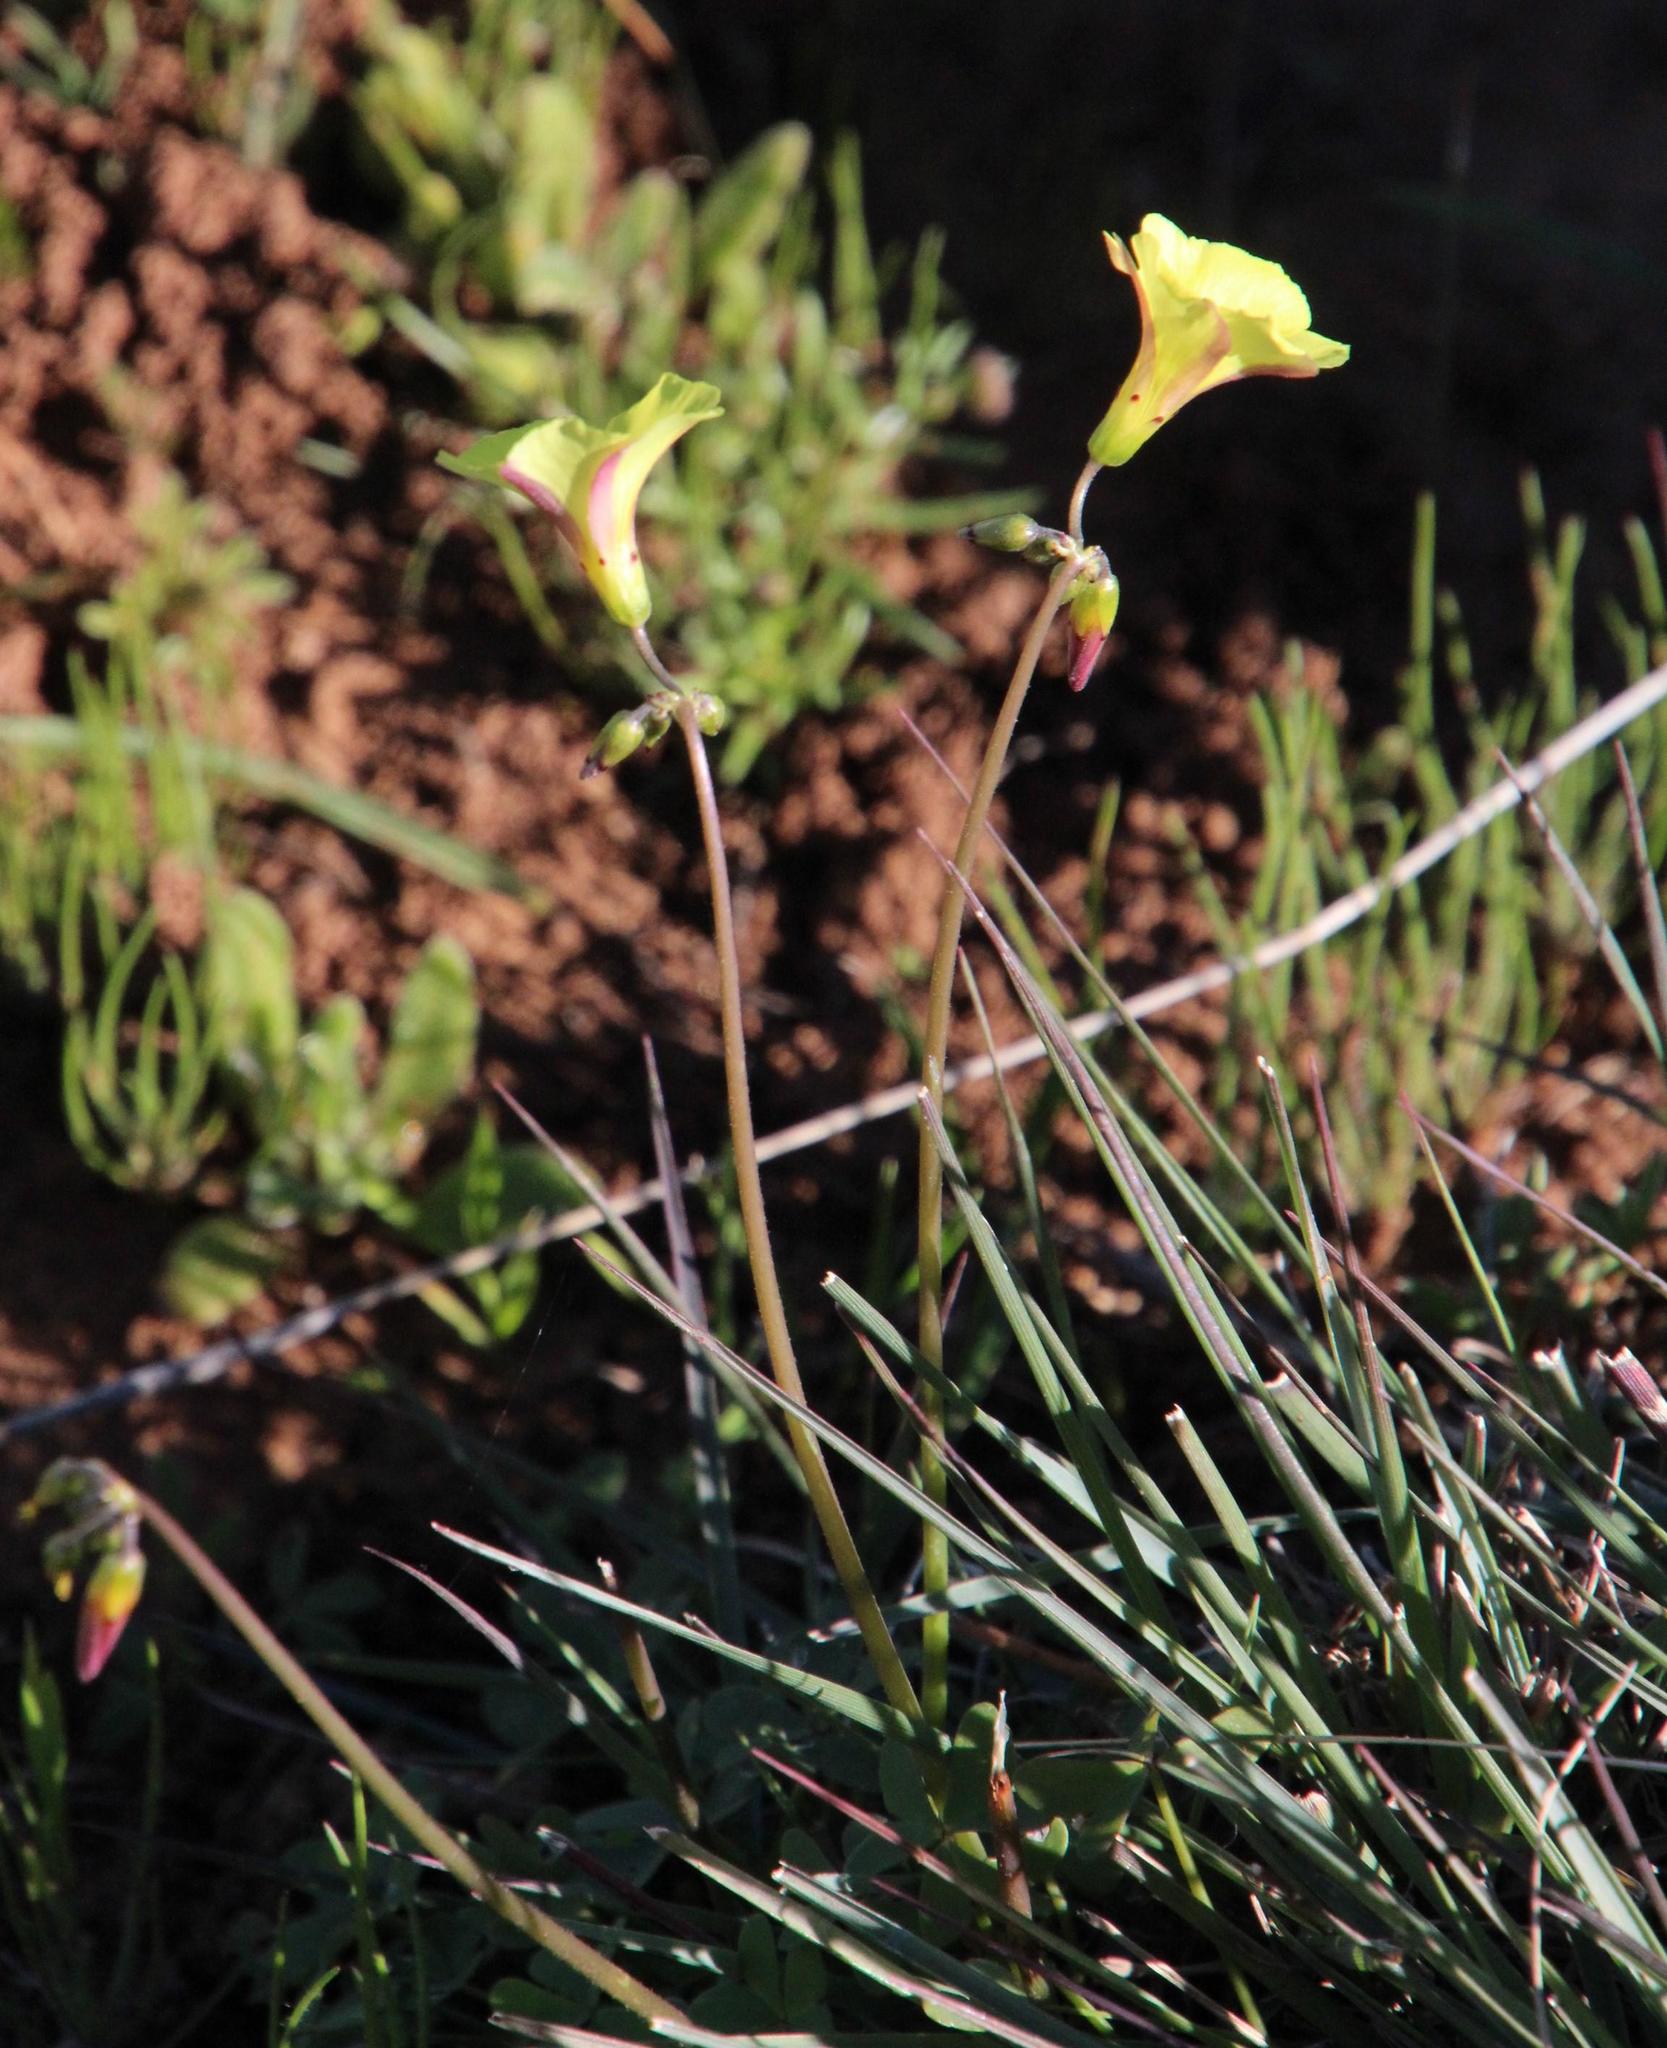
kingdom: Plantae
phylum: Tracheophyta
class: Magnoliopsida
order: Oxalidales
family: Oxalidaceae
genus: Oxalis
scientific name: Oxalis pes-caprae
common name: Bermuda-buttercup
